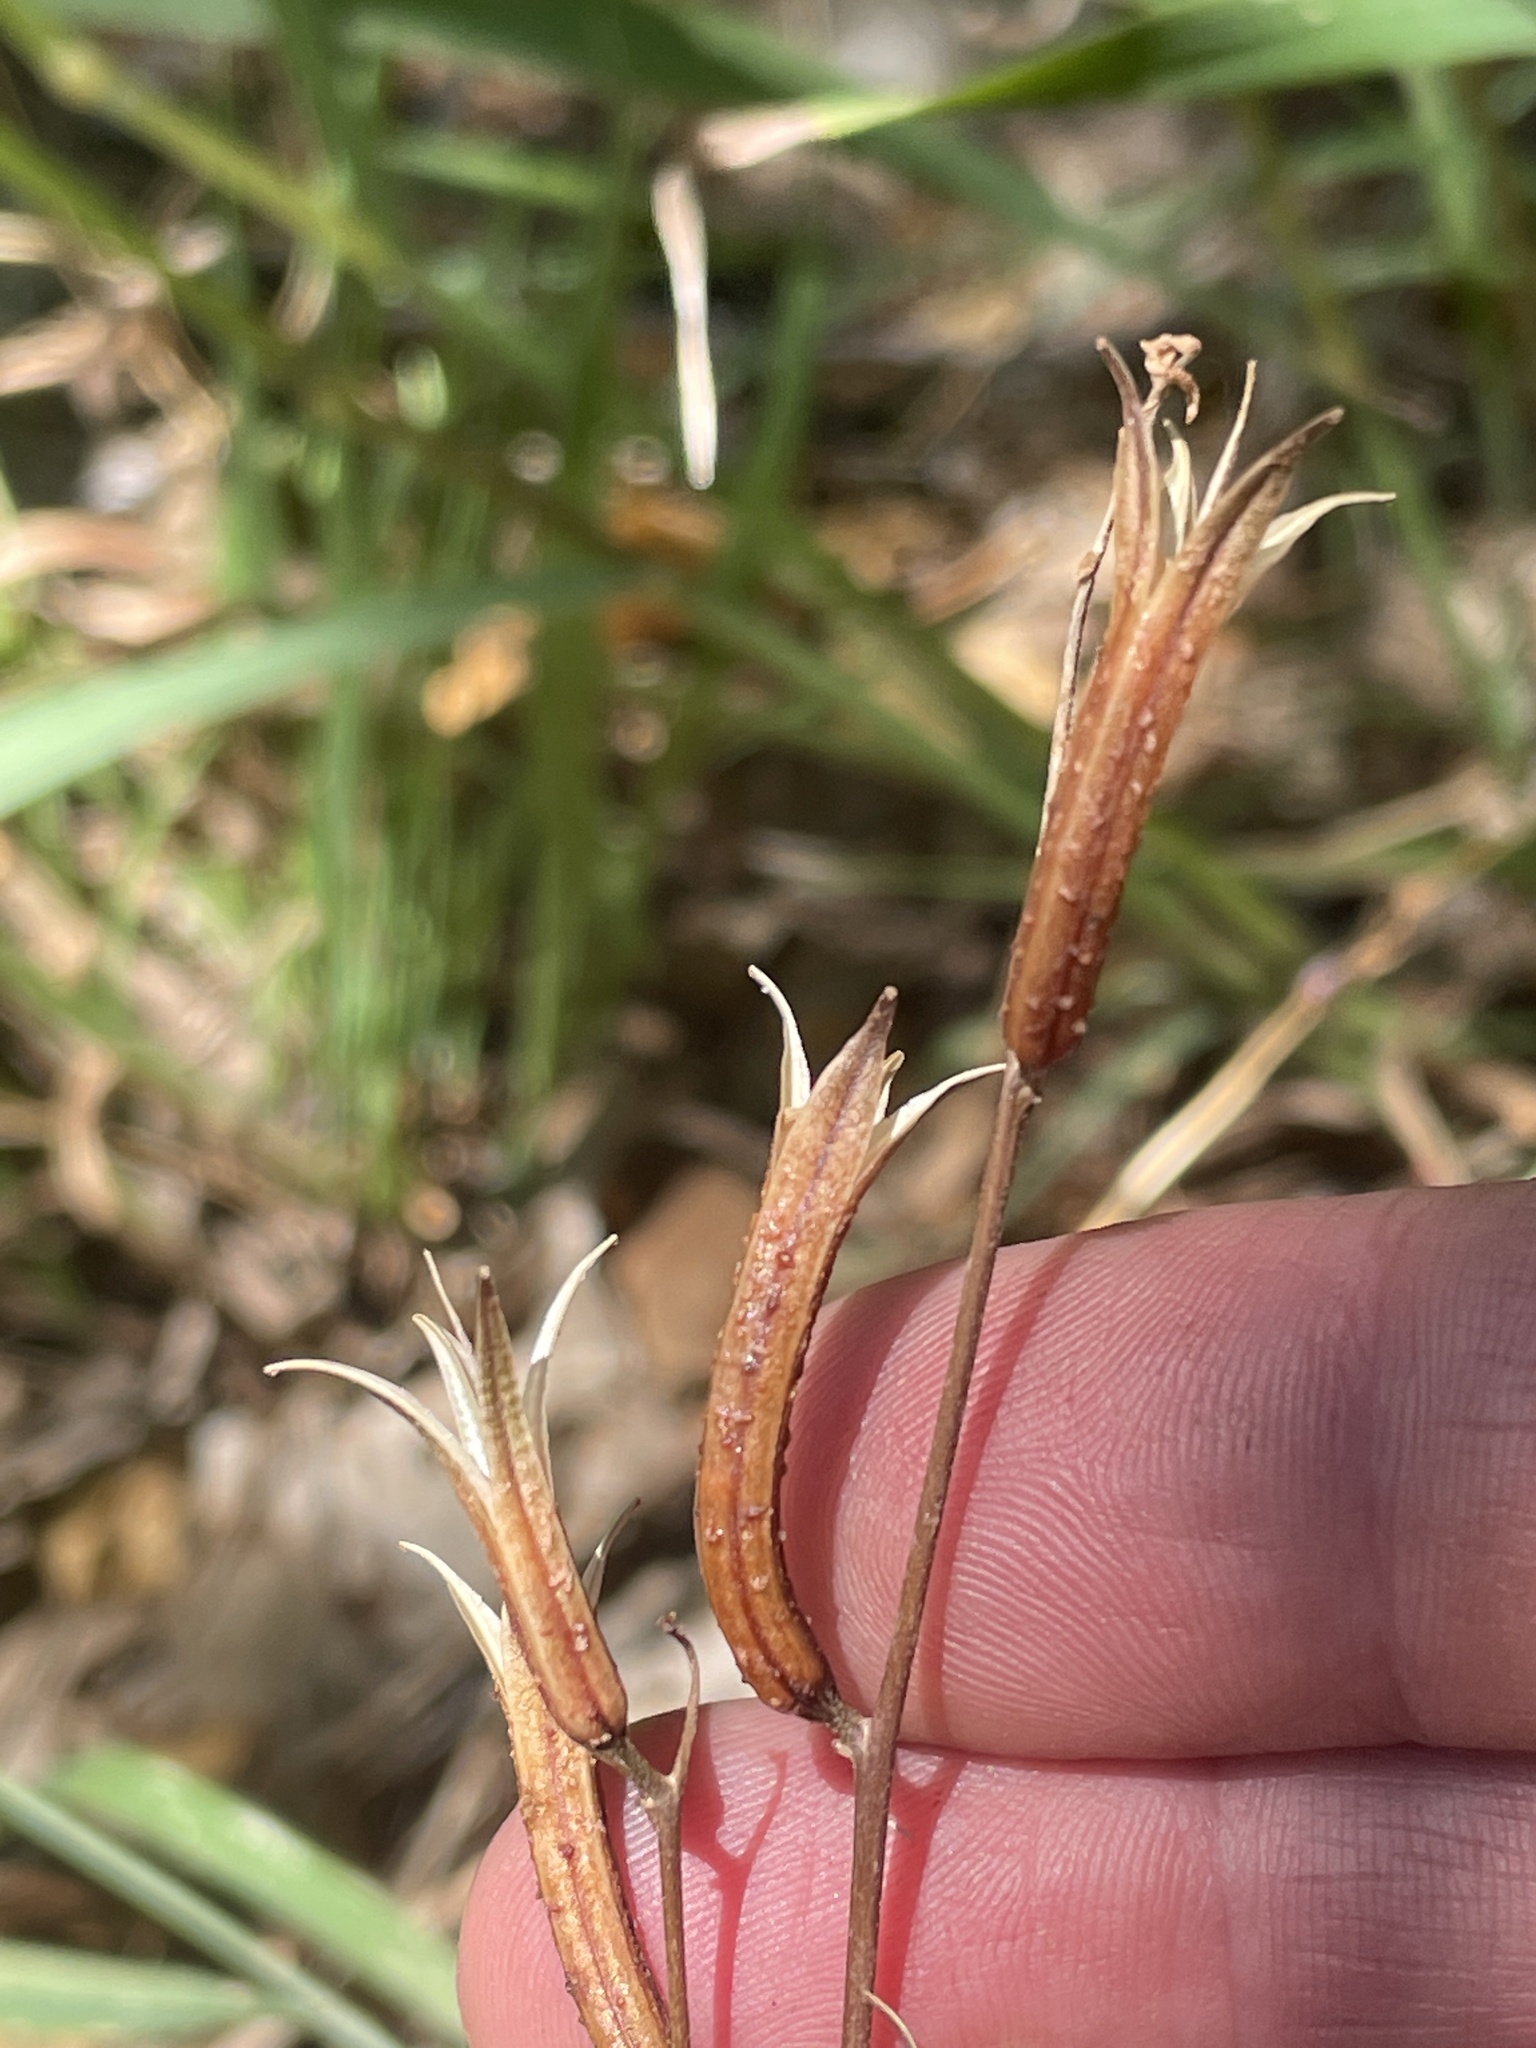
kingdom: Plantae
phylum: Tracheophyta
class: Magnoliopsida
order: Myrtales
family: Onagraceae
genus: Clarkia
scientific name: Clarkia rhomboidea
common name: Broadleaf clarkia
